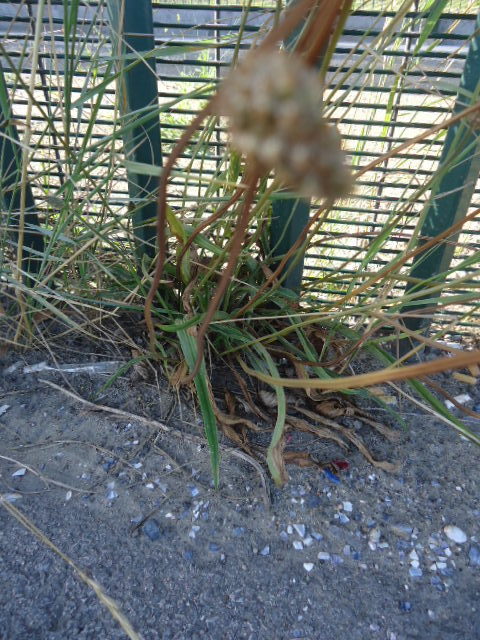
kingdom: Plantae
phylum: Tracheophyta
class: Magnoliopsida
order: Lamiales
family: Plantaginaceae
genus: Plantago
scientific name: Plantago lanceolata
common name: Ribwort plantain
